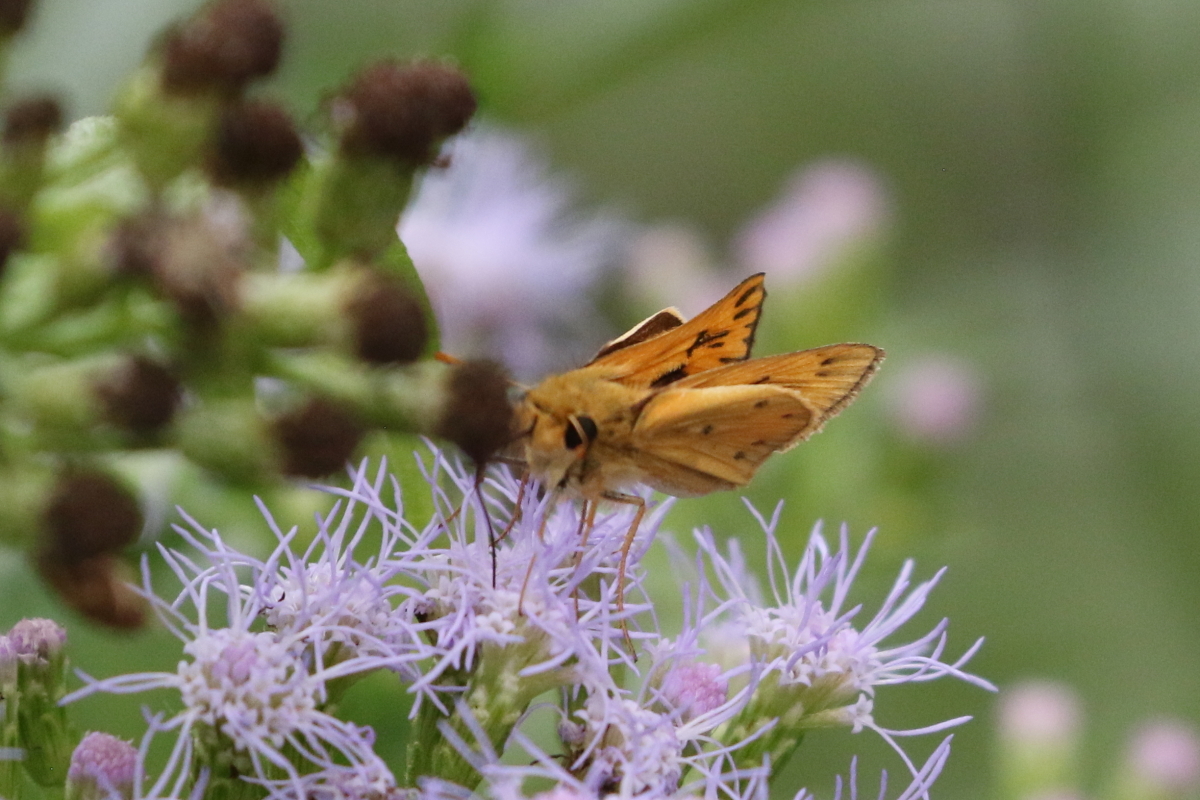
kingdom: Animalia
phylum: Arthropoda
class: Insecta
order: Lepidoptera
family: Hesperiidae
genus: Hylephila
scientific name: Hylephila phyleus
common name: Fiery skipper
